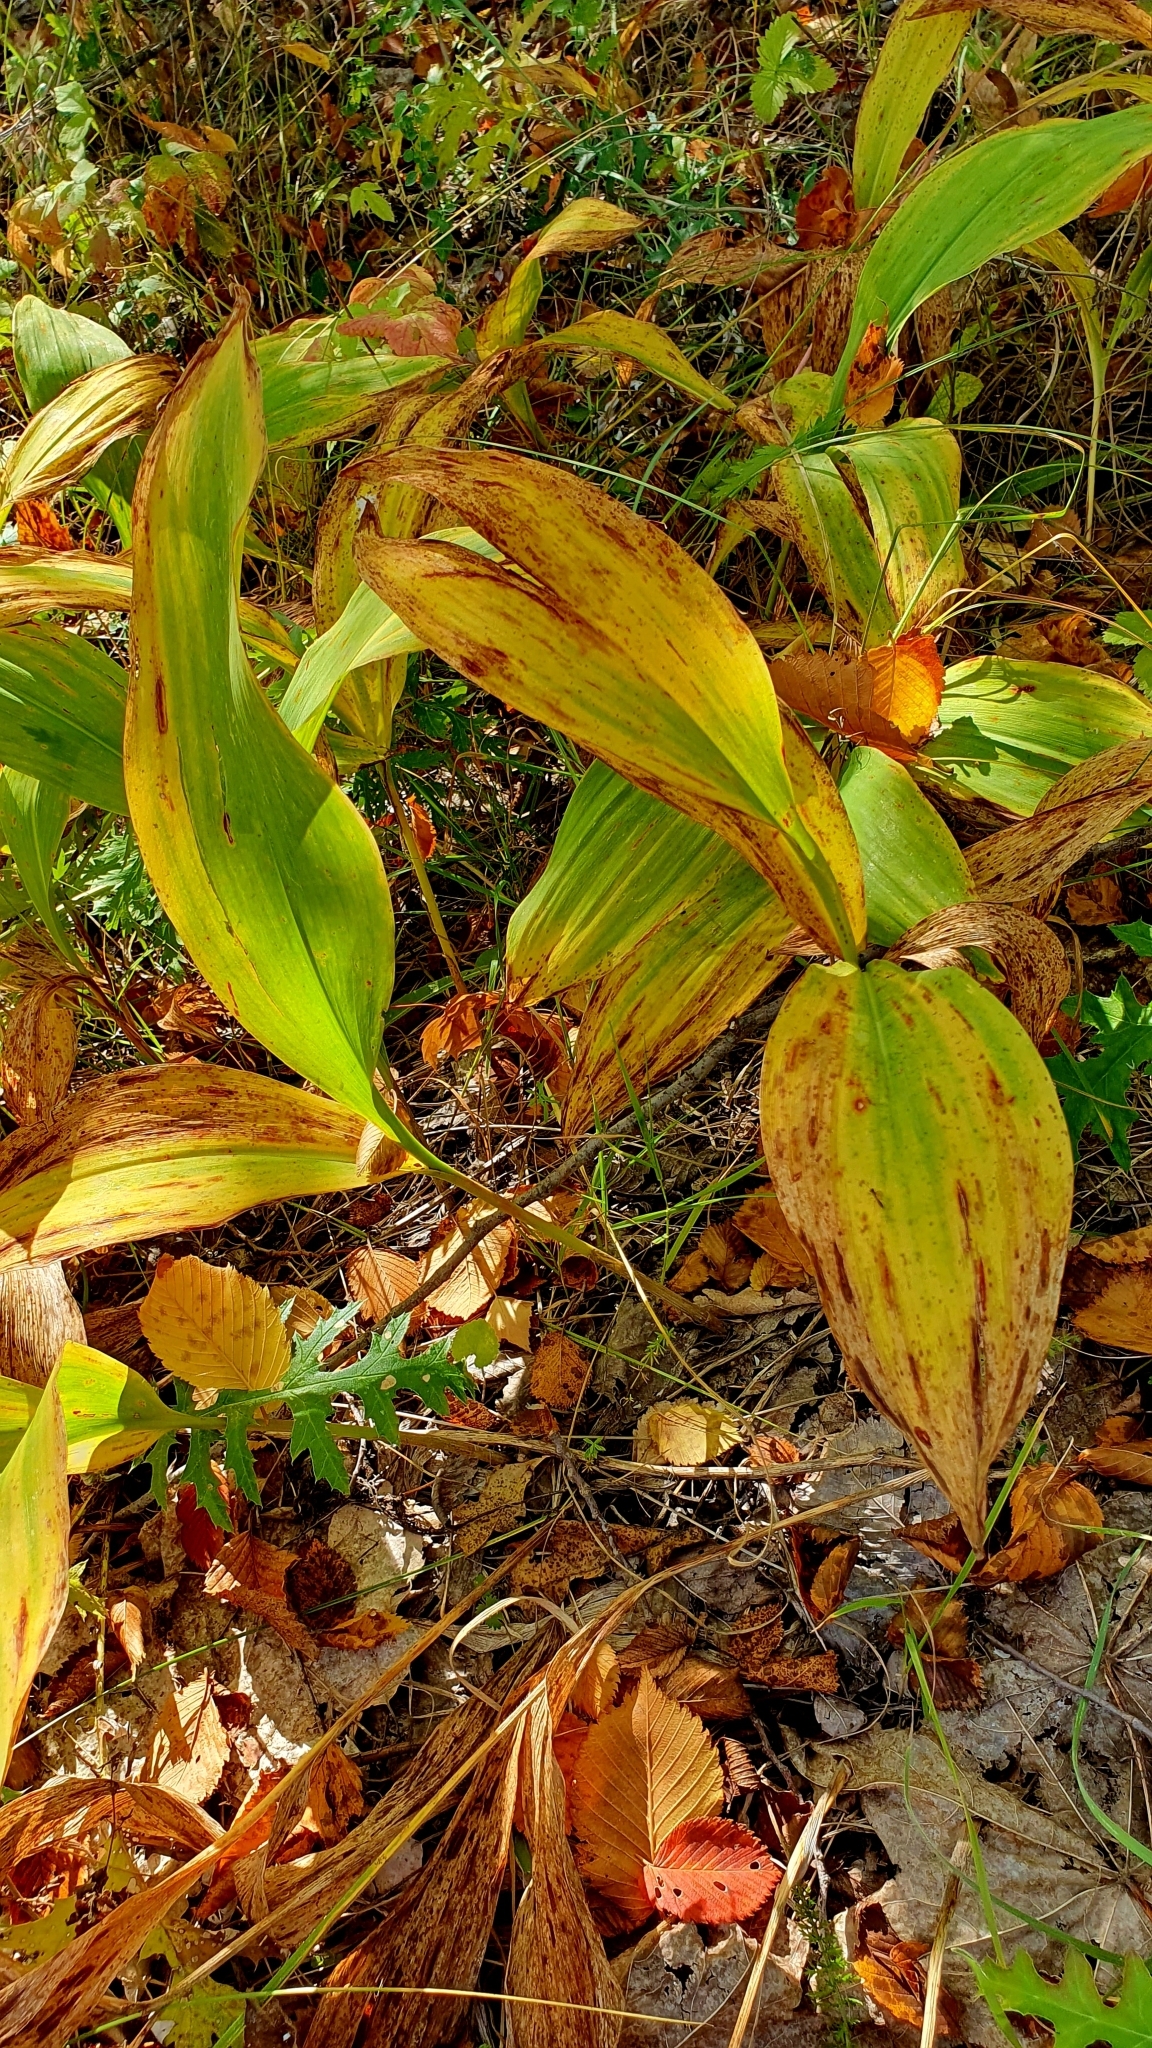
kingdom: Plantae
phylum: Tracheophyta
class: Liliopsida
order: Asparagales
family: Asparagaceae
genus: Convallaria
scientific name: Convallaria majalis
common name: Lily-of-the-valley
